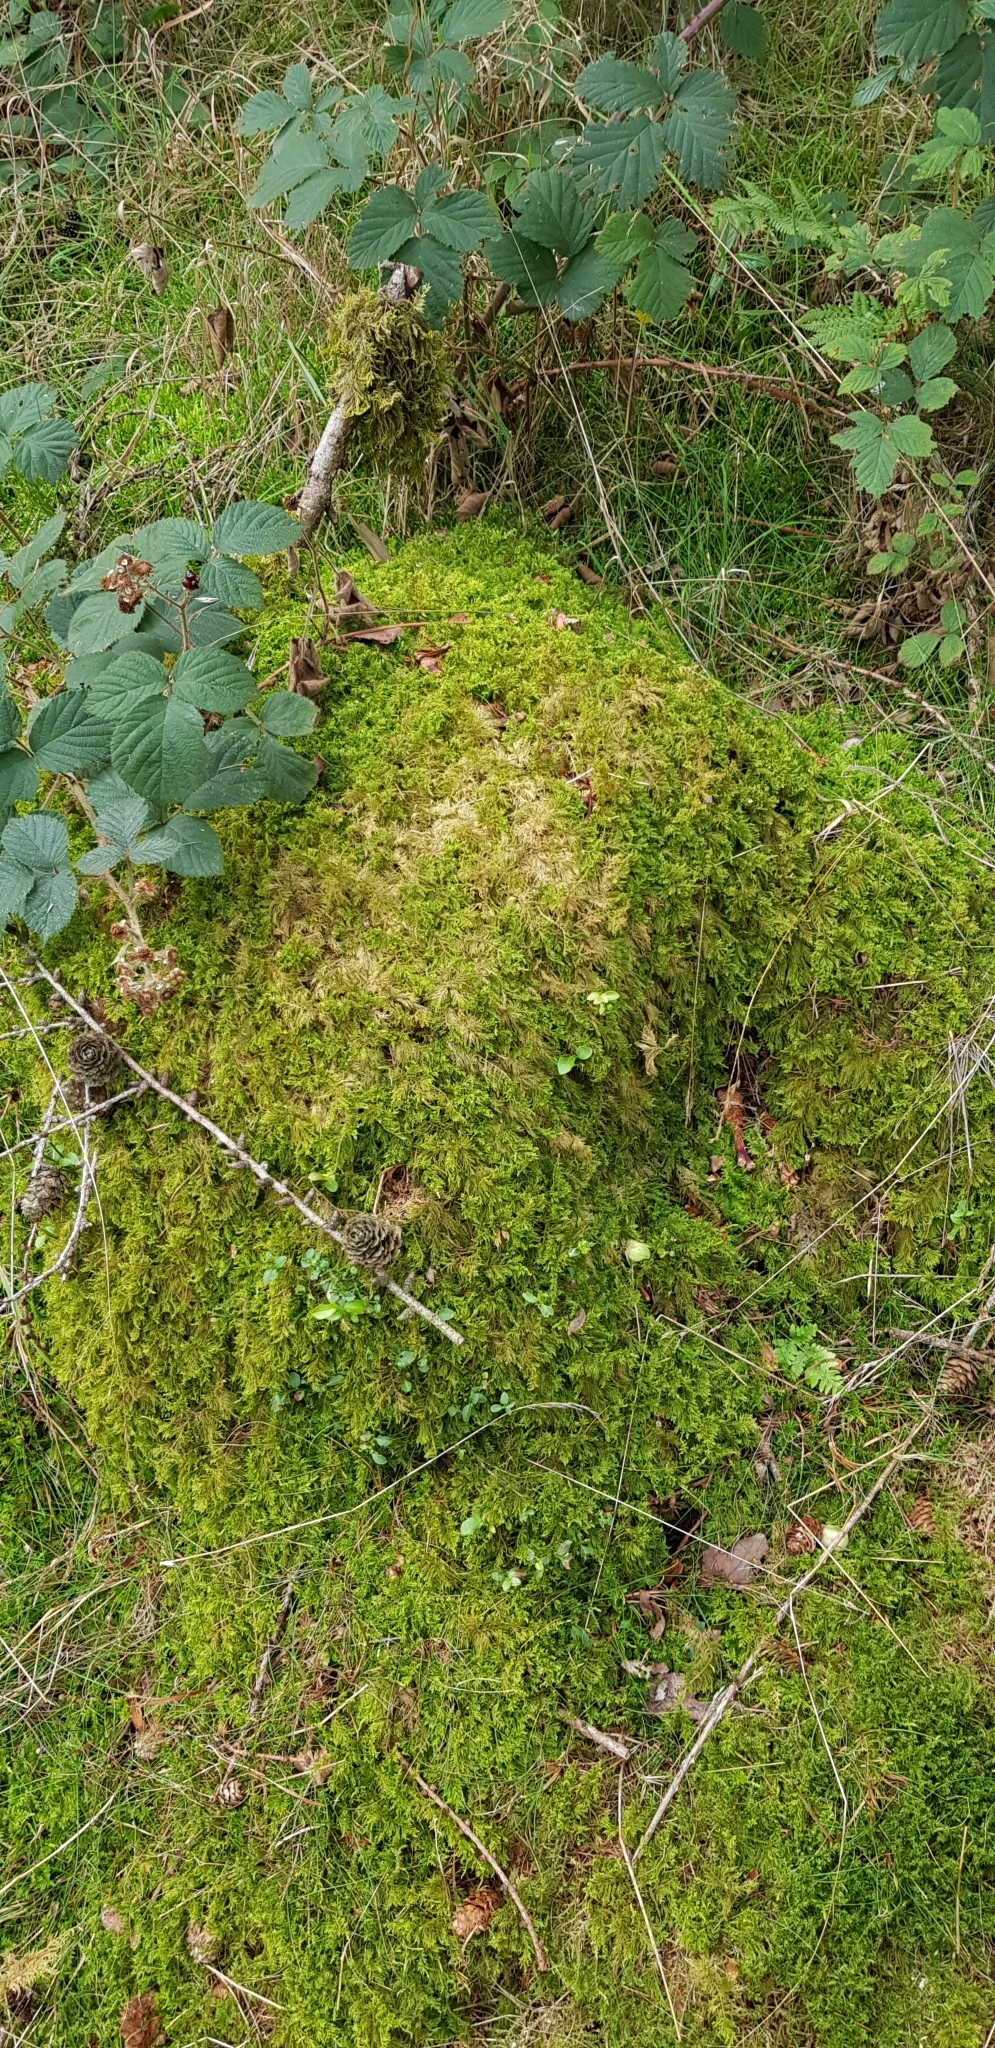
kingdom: Plantae
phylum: Bryophyta
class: Bryopsida
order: Hypnales
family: Thuidiaceae
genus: Thuidium
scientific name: Thuidium tamariscinum
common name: Common tamarisk-moss
